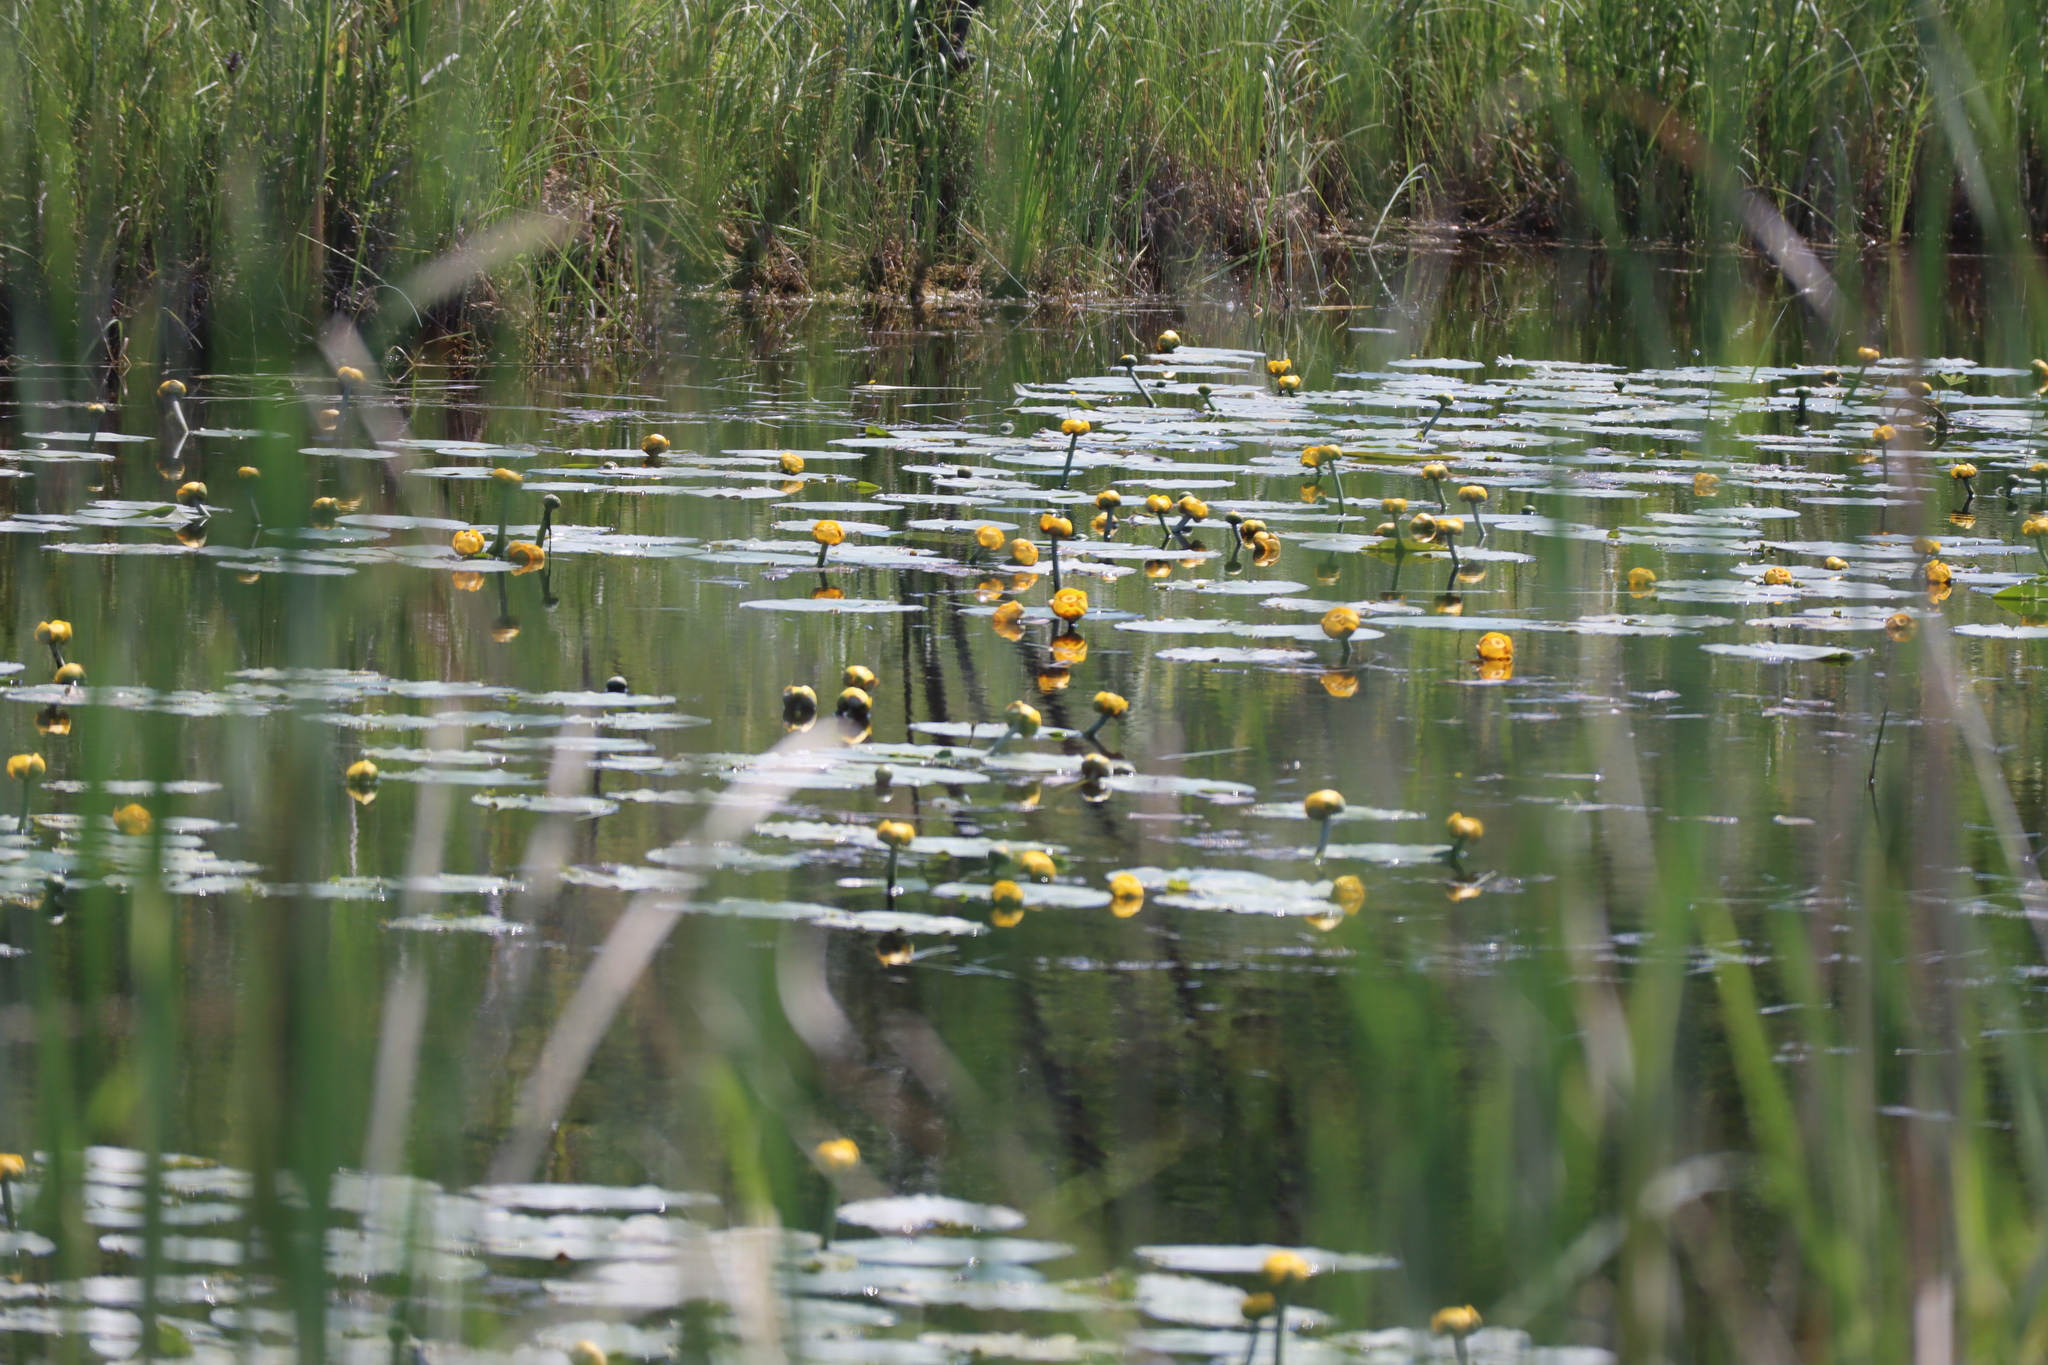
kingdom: Plantae
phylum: Tracheophyta
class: Magnoliopsida
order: Nymphaeales
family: Nymphaeaceae
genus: Nuphar
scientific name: Nuphar variegata
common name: Beaver-root
